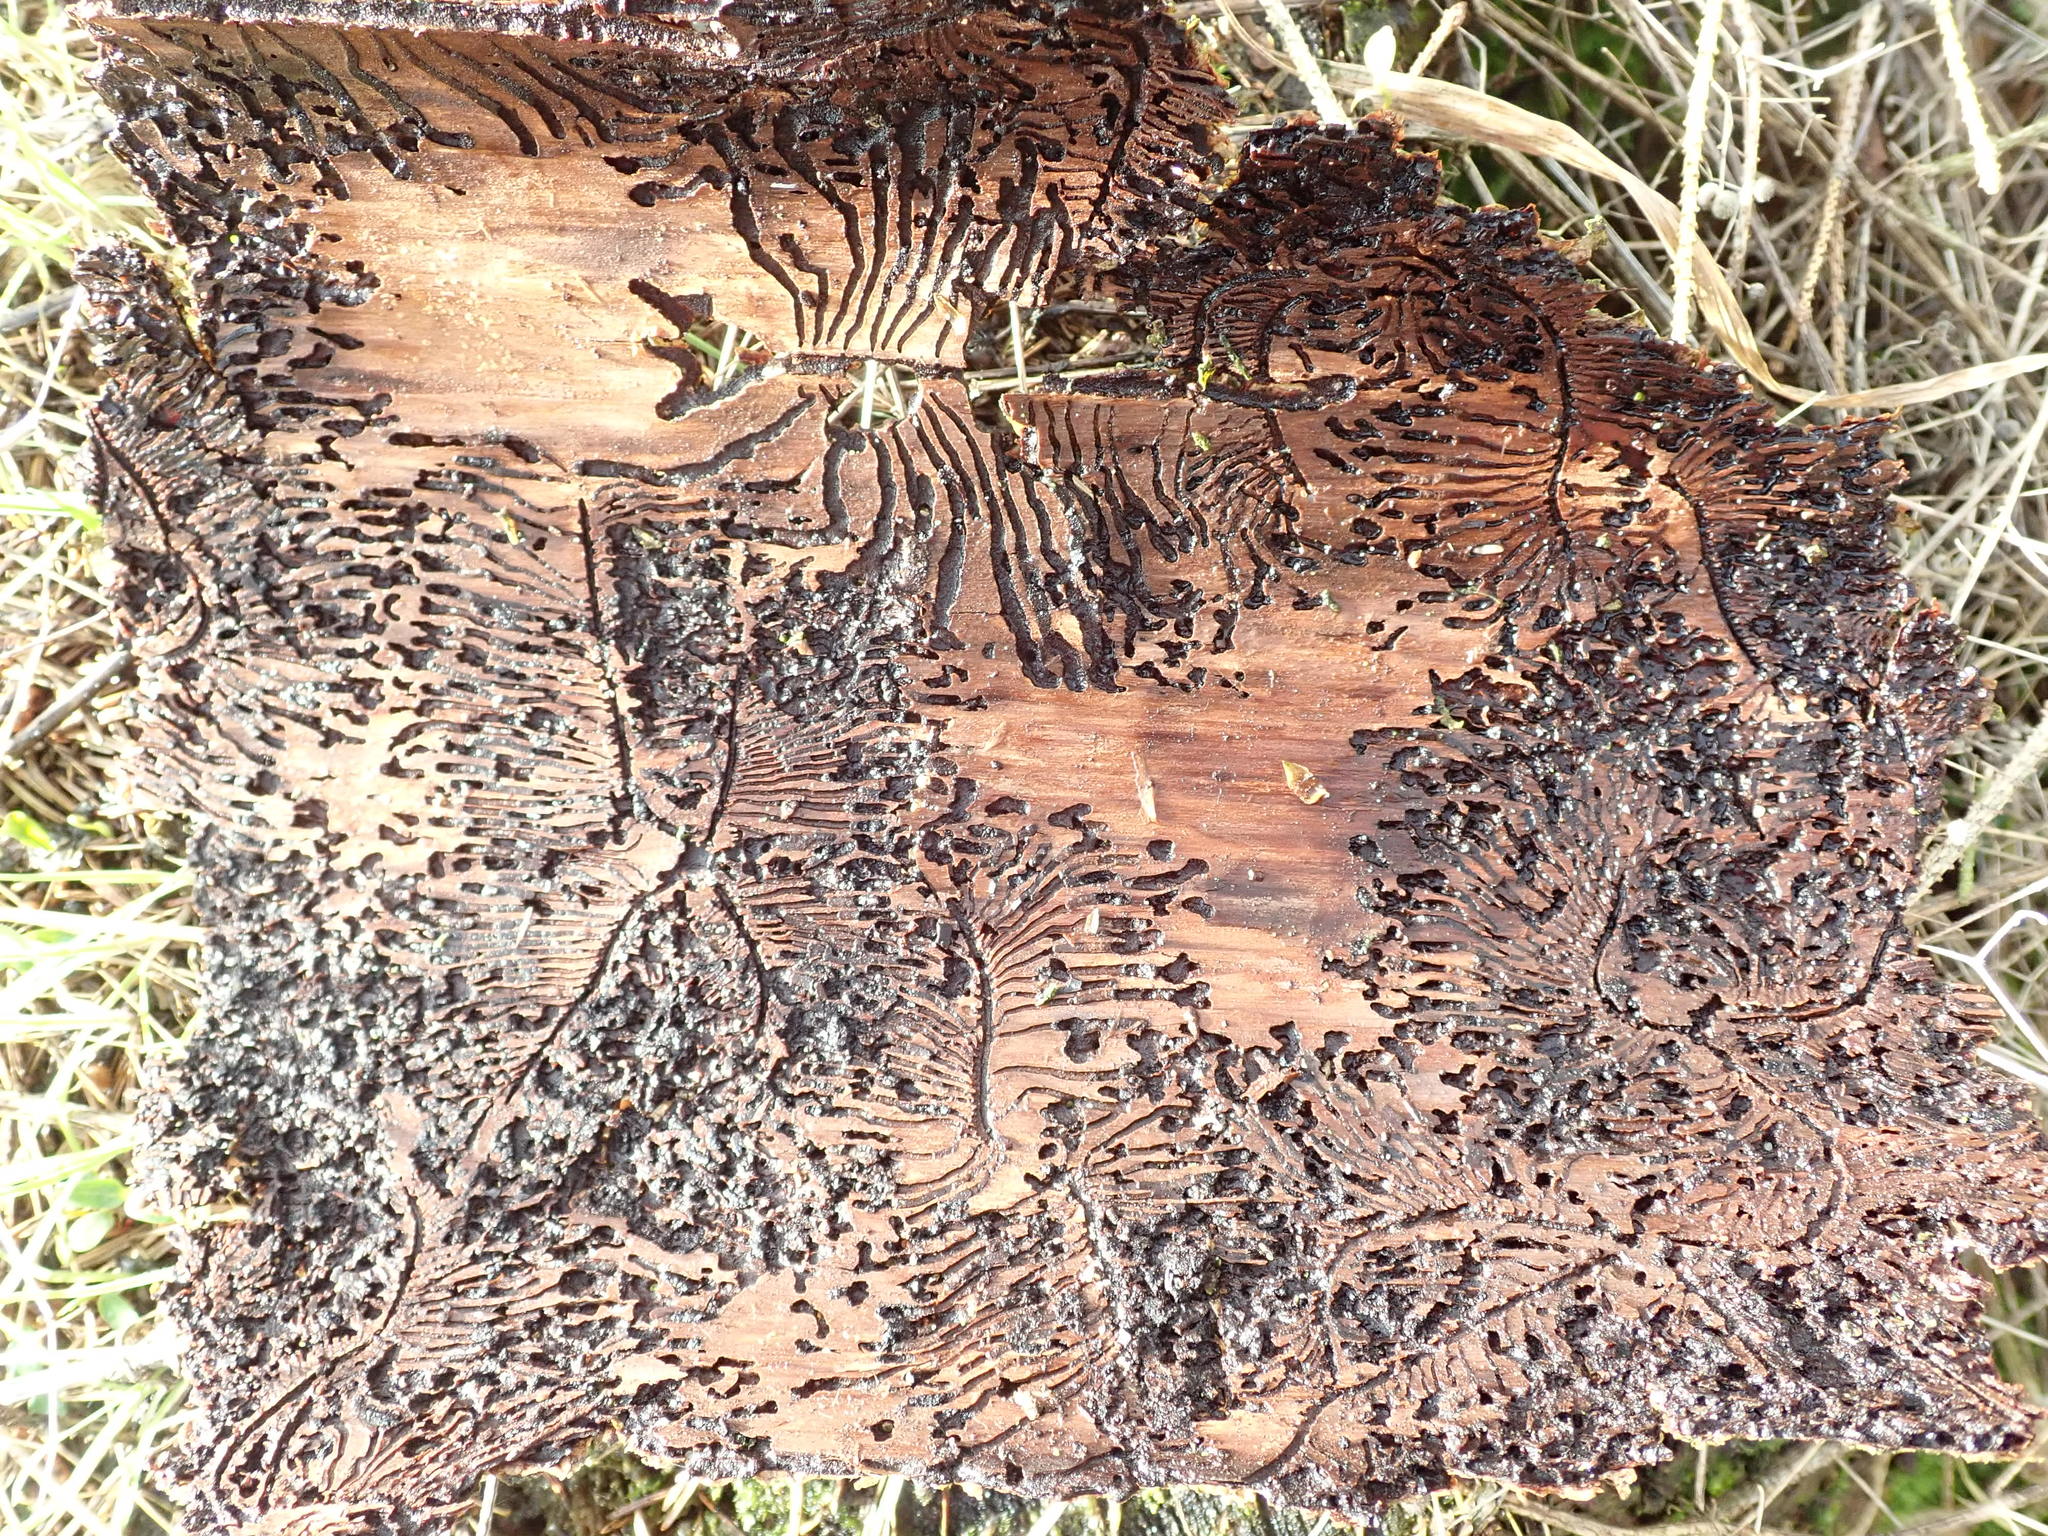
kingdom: Animalia
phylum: Arthropoda
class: Insecta
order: Coleoptera
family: Curculionidae
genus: Pityogenes
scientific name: Pityogenes chalcographus
